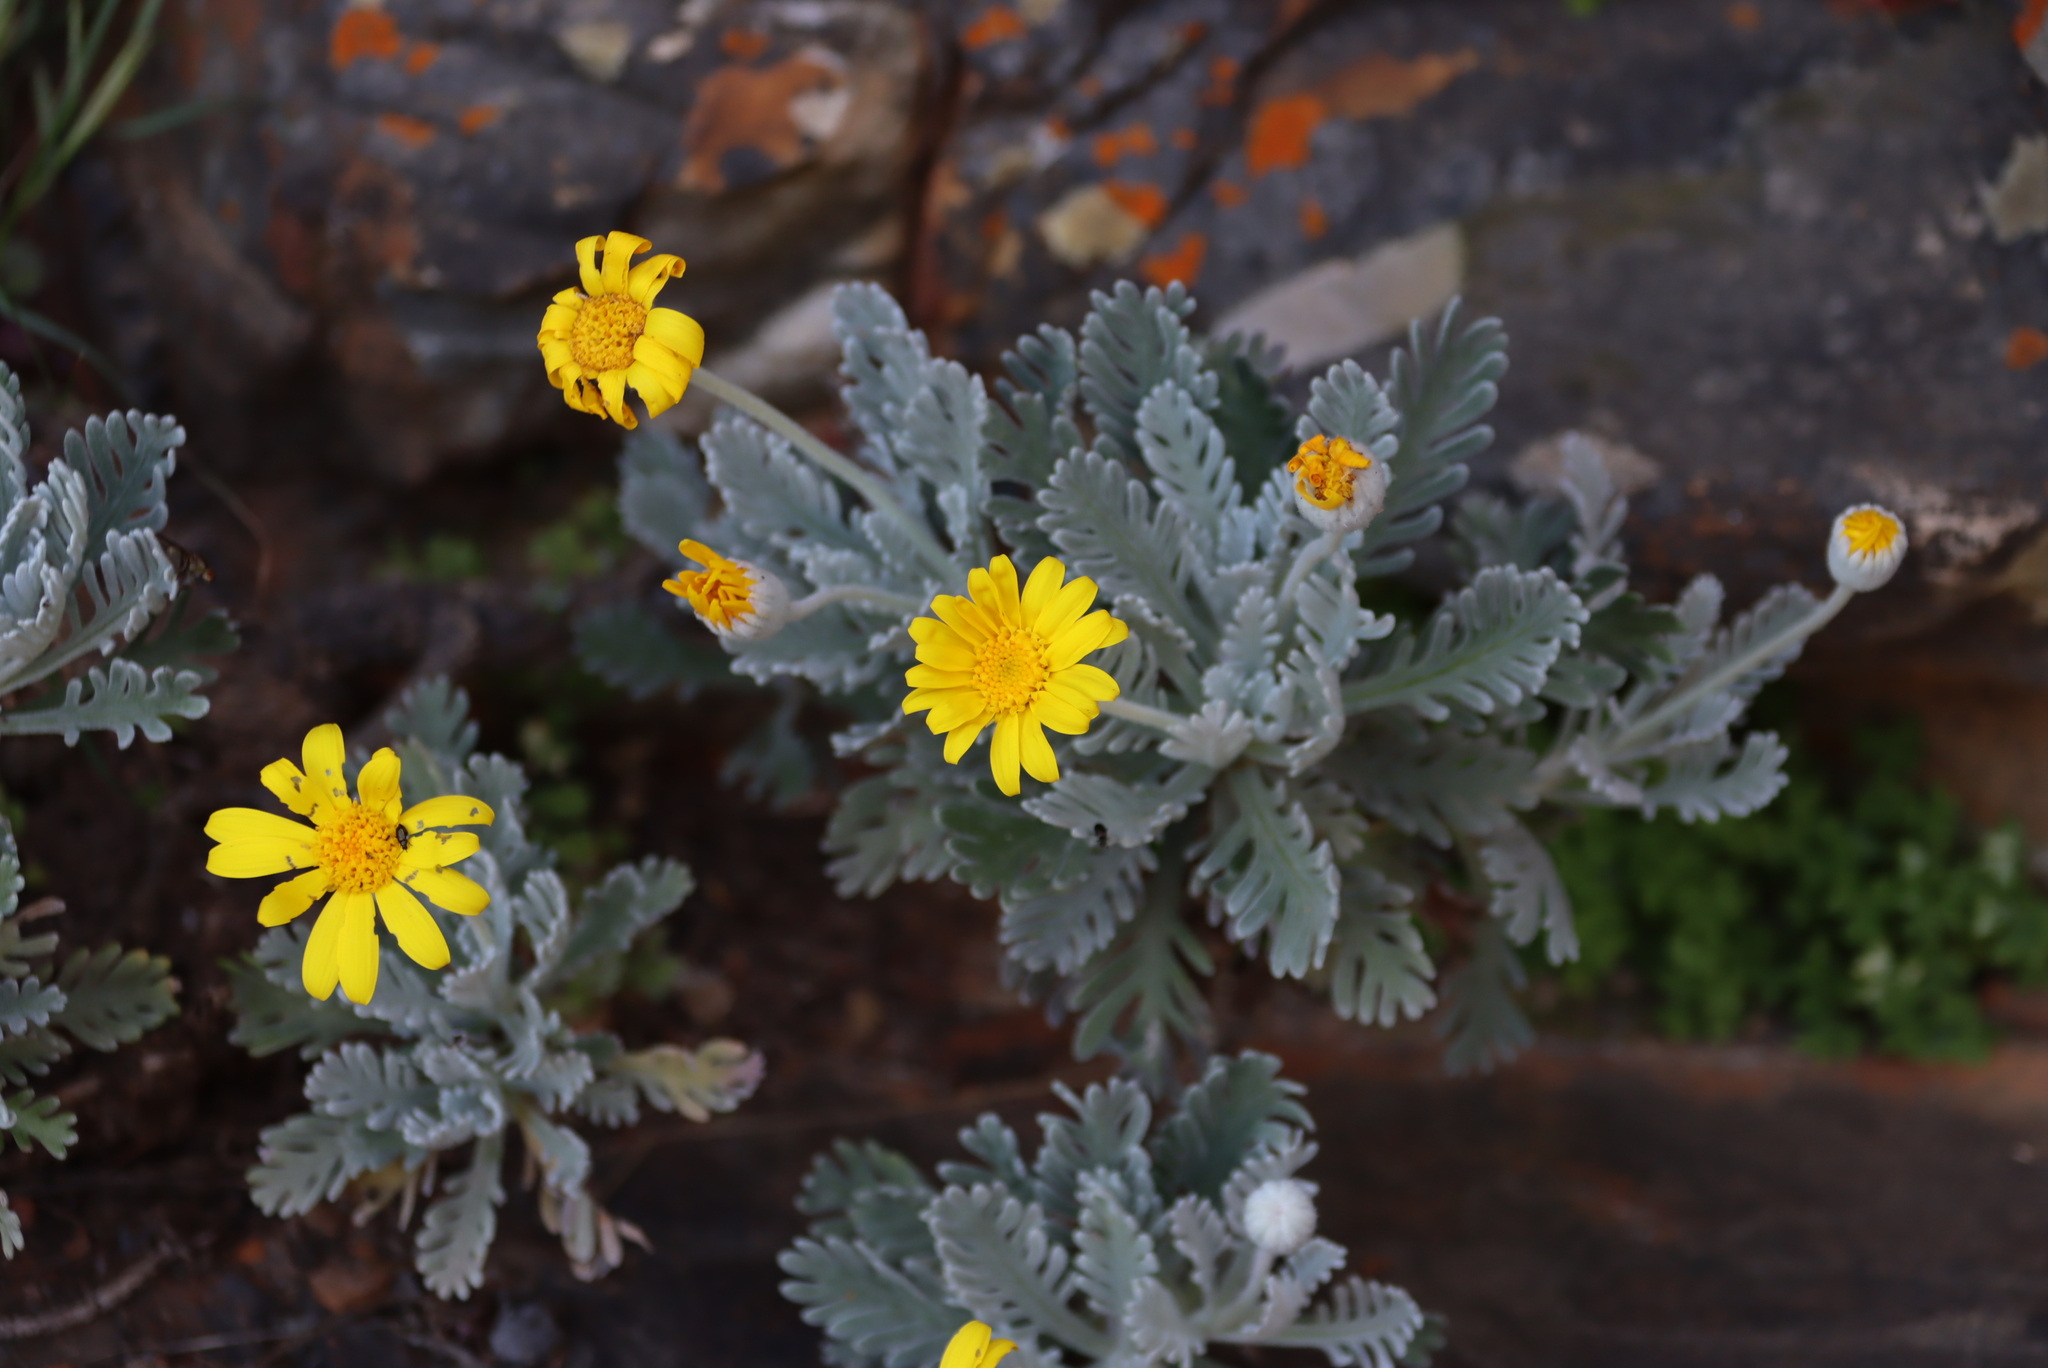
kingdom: Plantae
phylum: Tracheophyta
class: Magnoliopsida
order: Asterales
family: Asteraceae
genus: Euryops
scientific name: Euryops pectinatus
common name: Gray-leaf euryops
